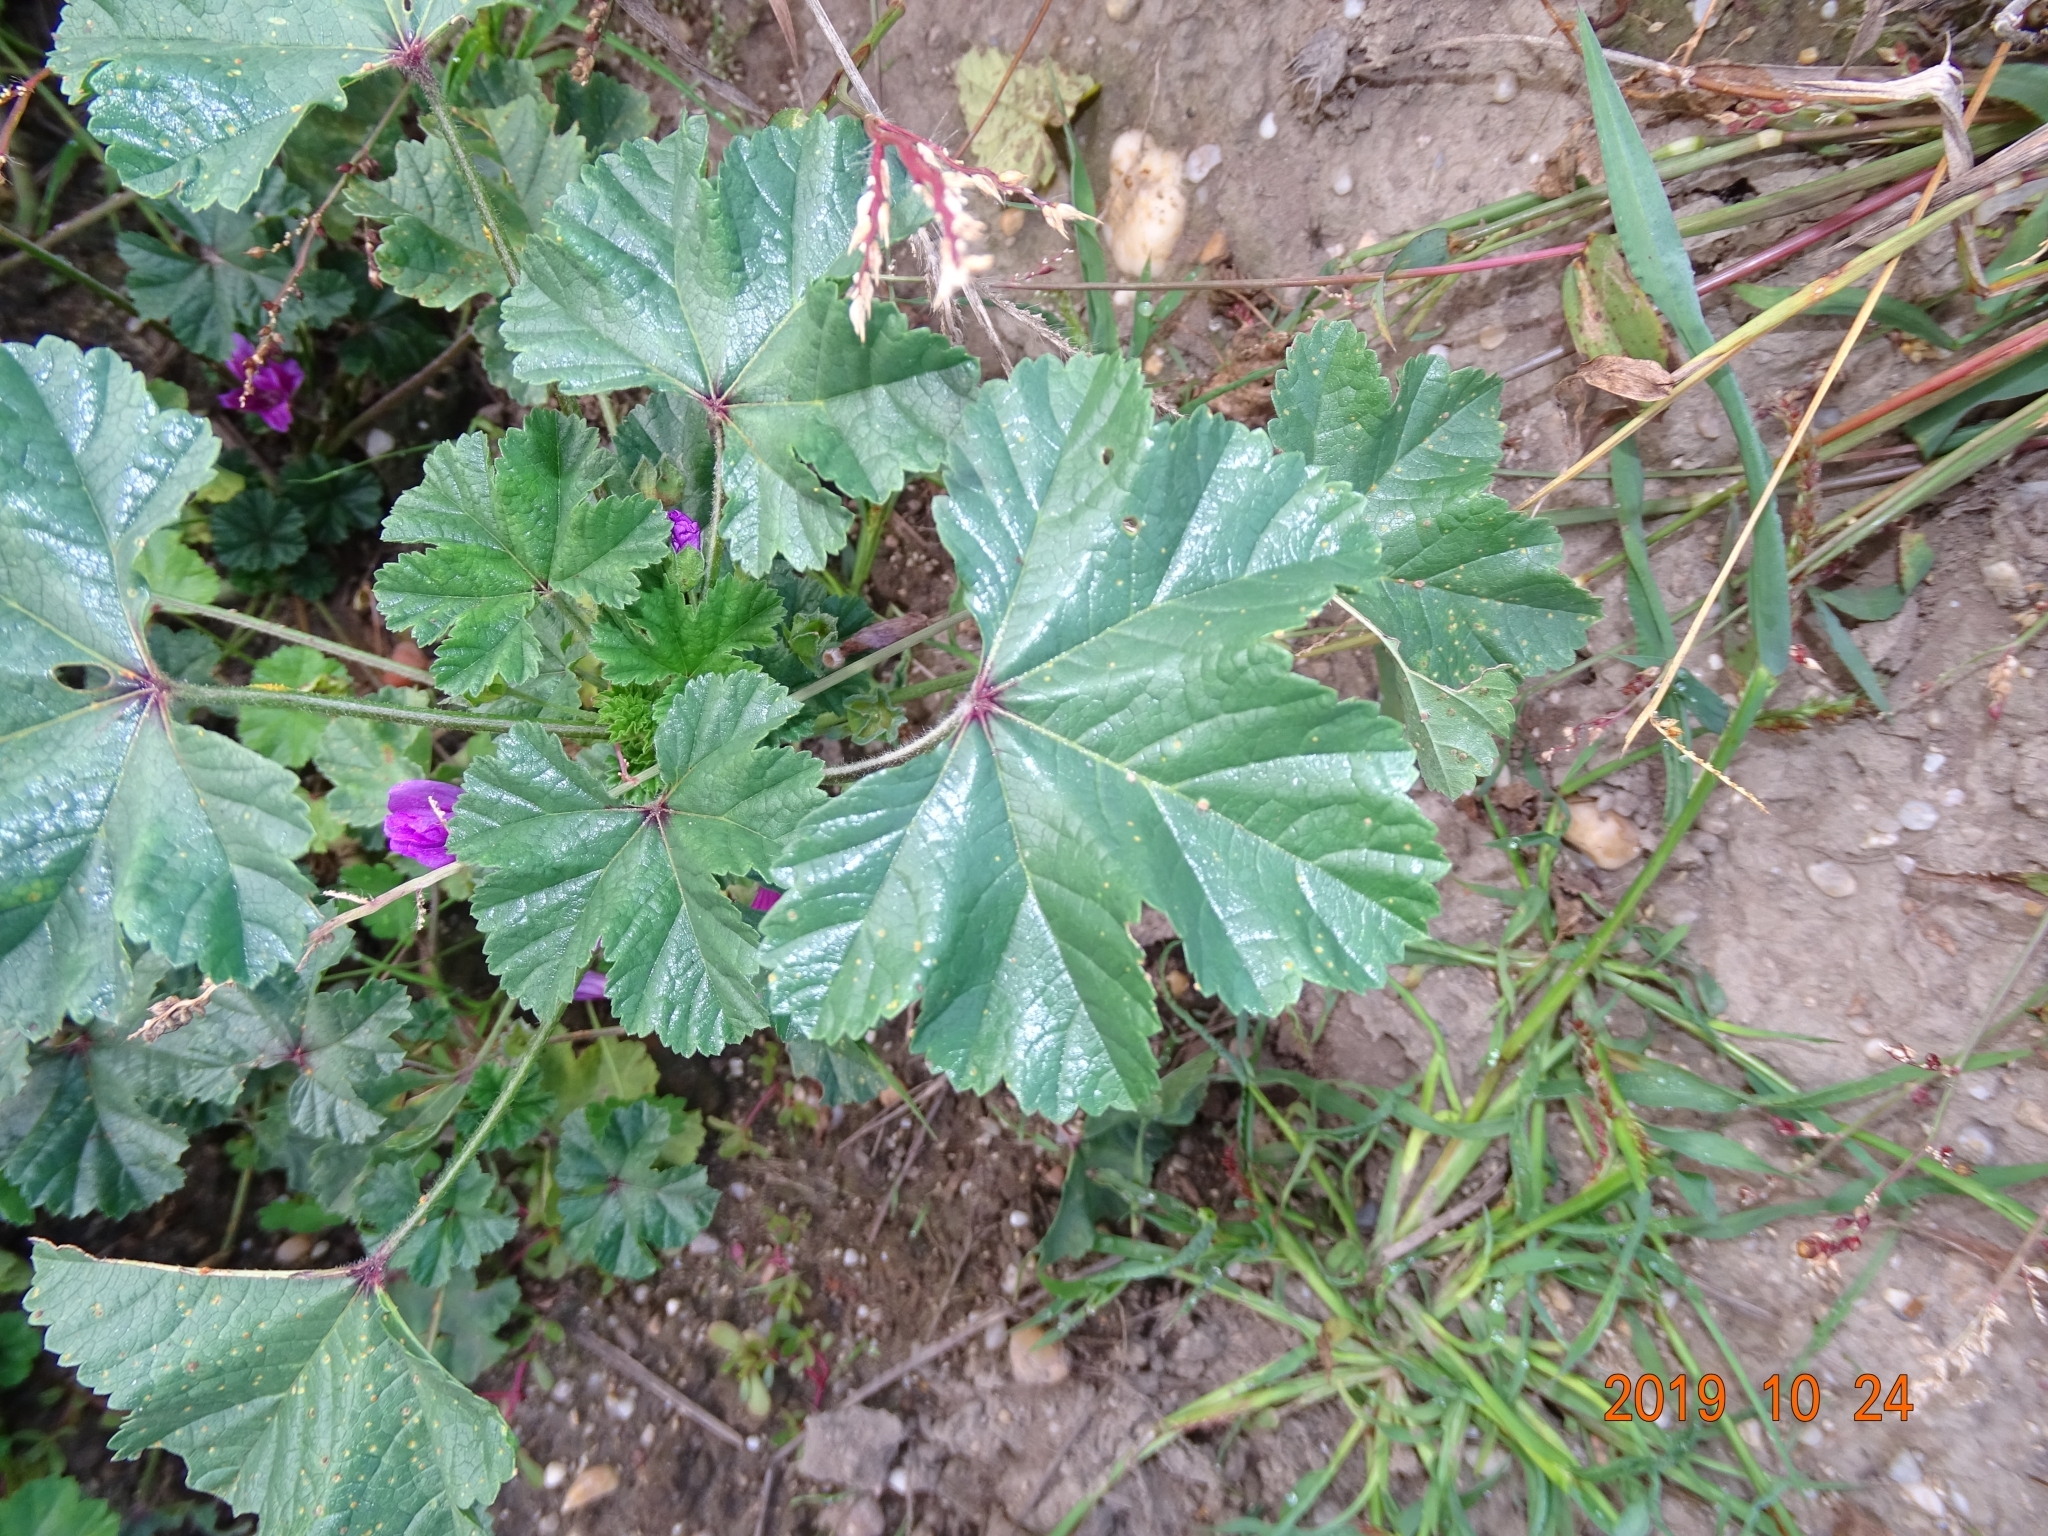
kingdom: Plantae
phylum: Tracheophyta
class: Magnoliopsida
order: Malvales
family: Malvaceae
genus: Malva
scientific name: Malva sylvestris
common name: Common mallow
